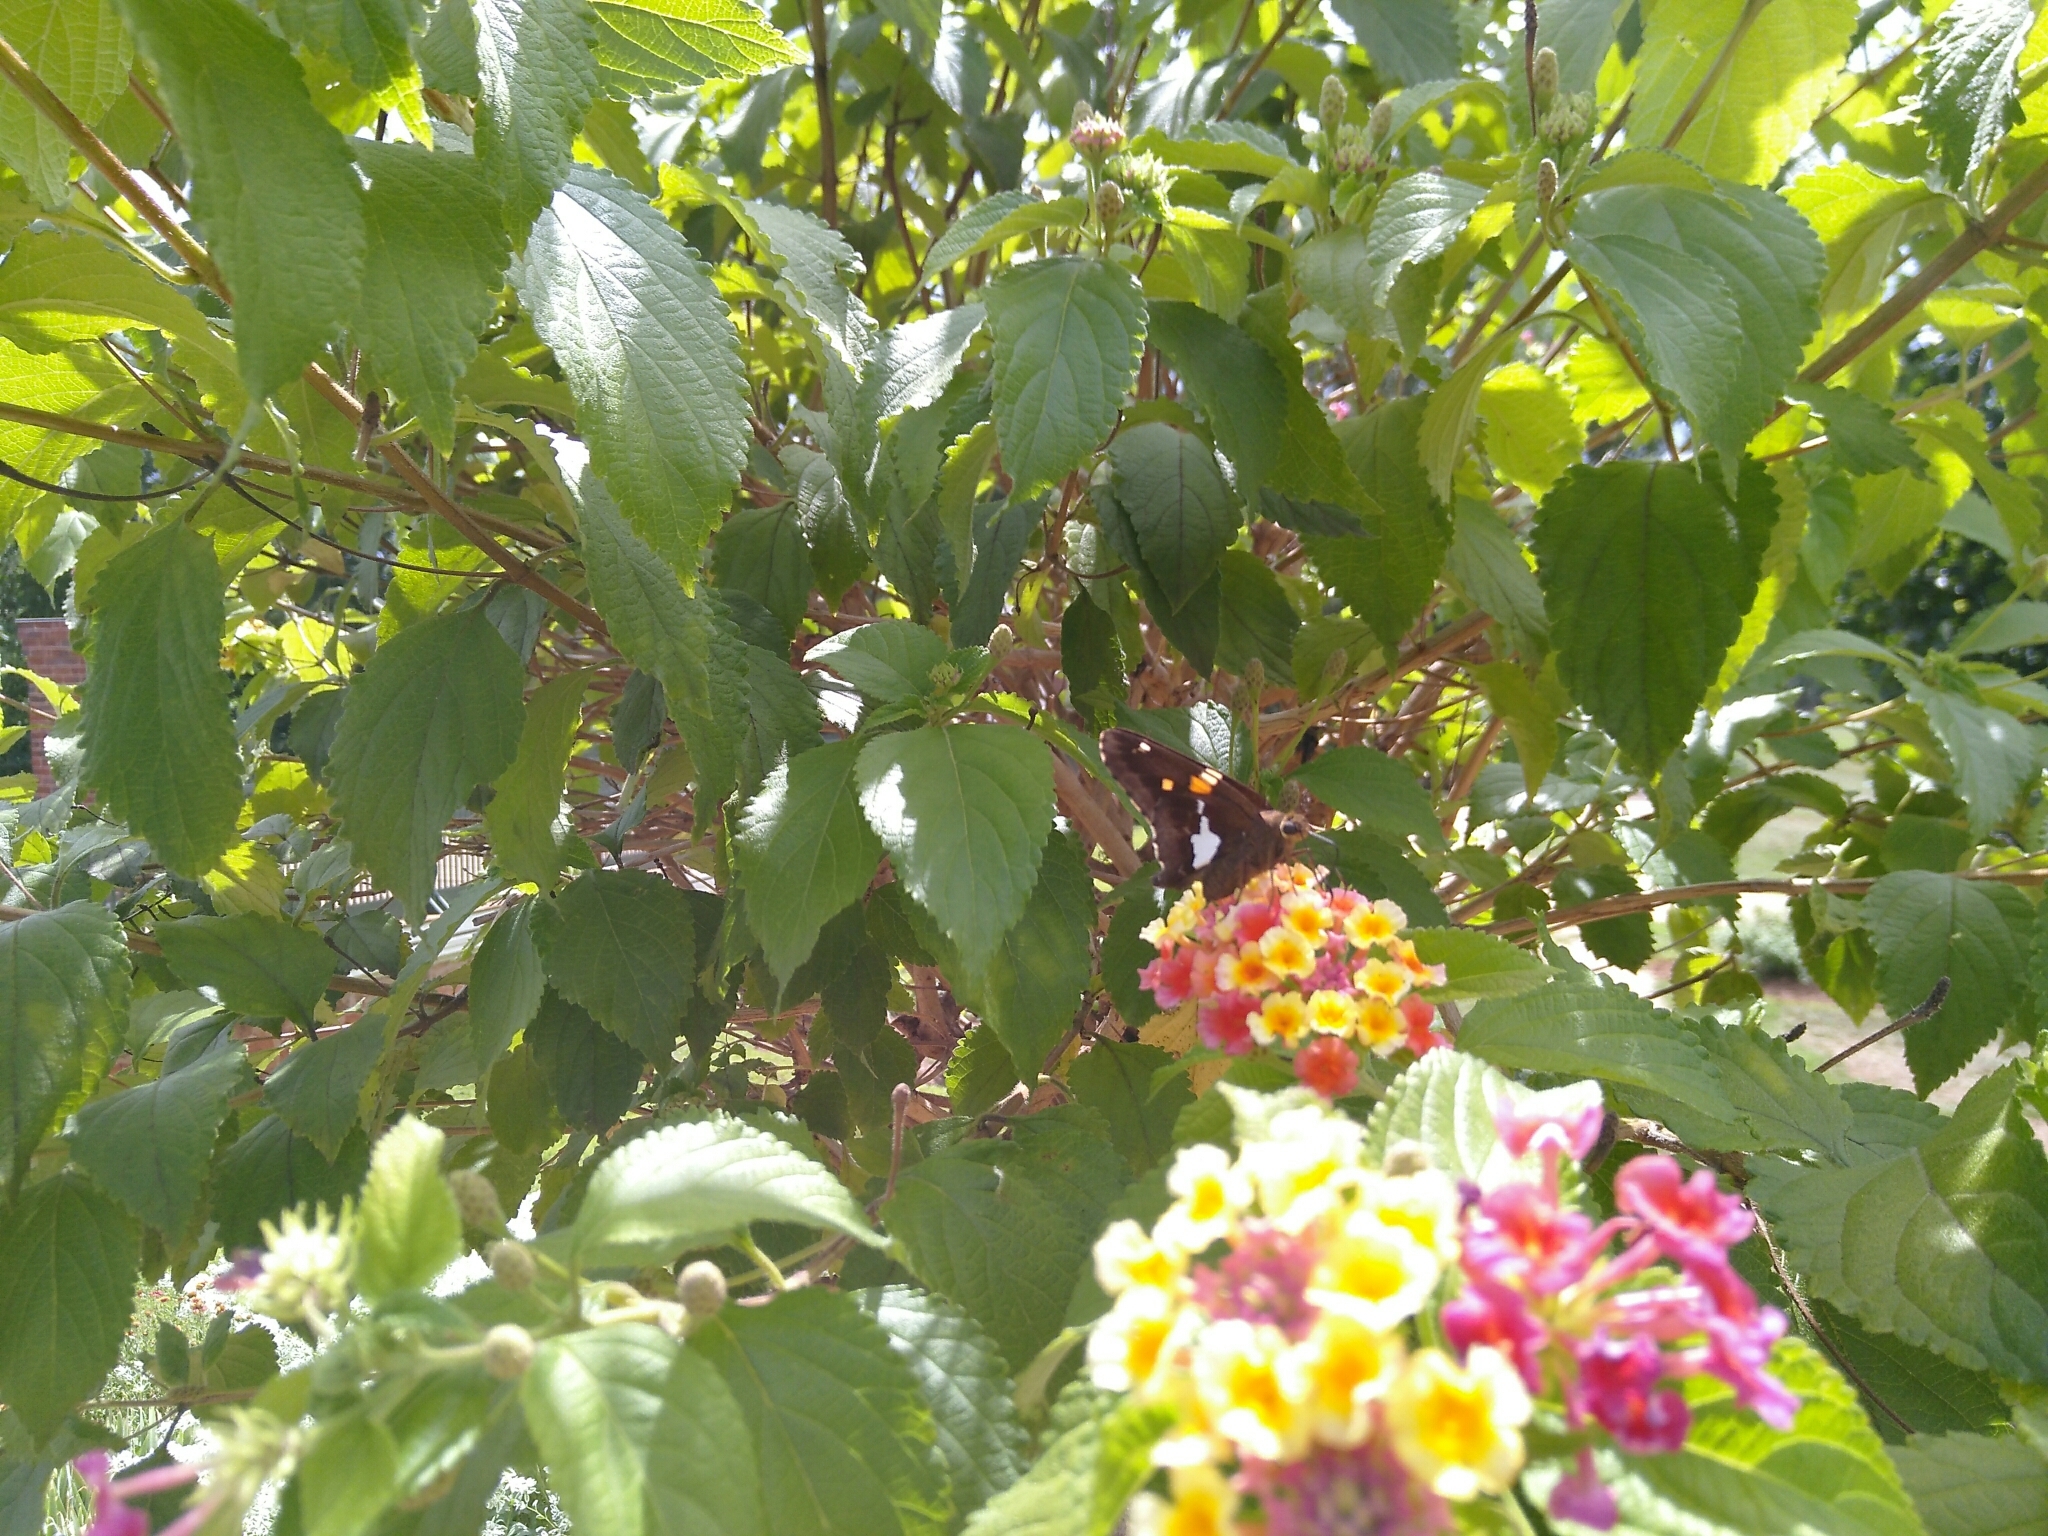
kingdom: Animalia
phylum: Arthropoda
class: Insecta
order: Lepidoptera
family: Hesperiidae
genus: Epargyreus
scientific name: Epargyreus clarus
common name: Silver-spotted skipper
